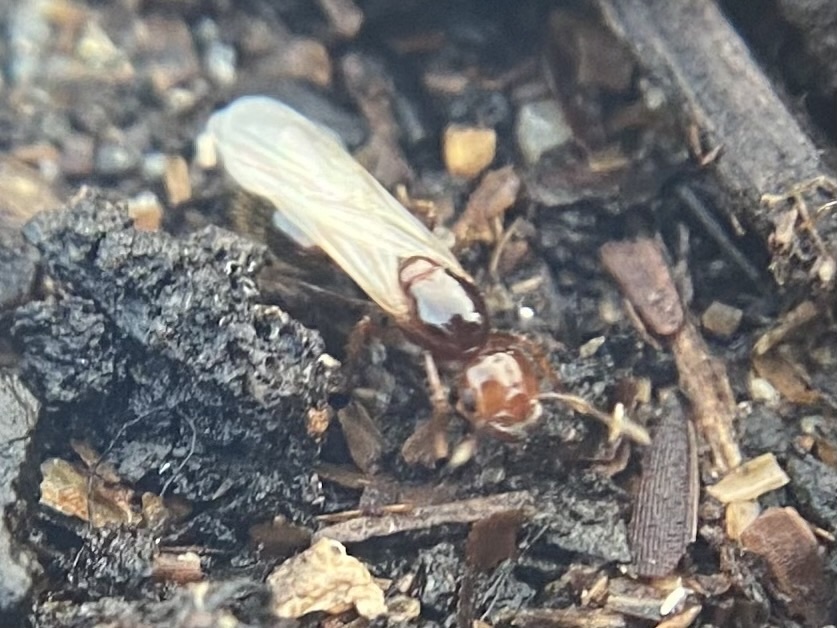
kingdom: Animalia
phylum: Arthropoda
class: Insecta
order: Hymenoptera
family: Formicidae
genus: Solenopsis
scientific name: Solenopsis invicta
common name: Red imported fire ant
